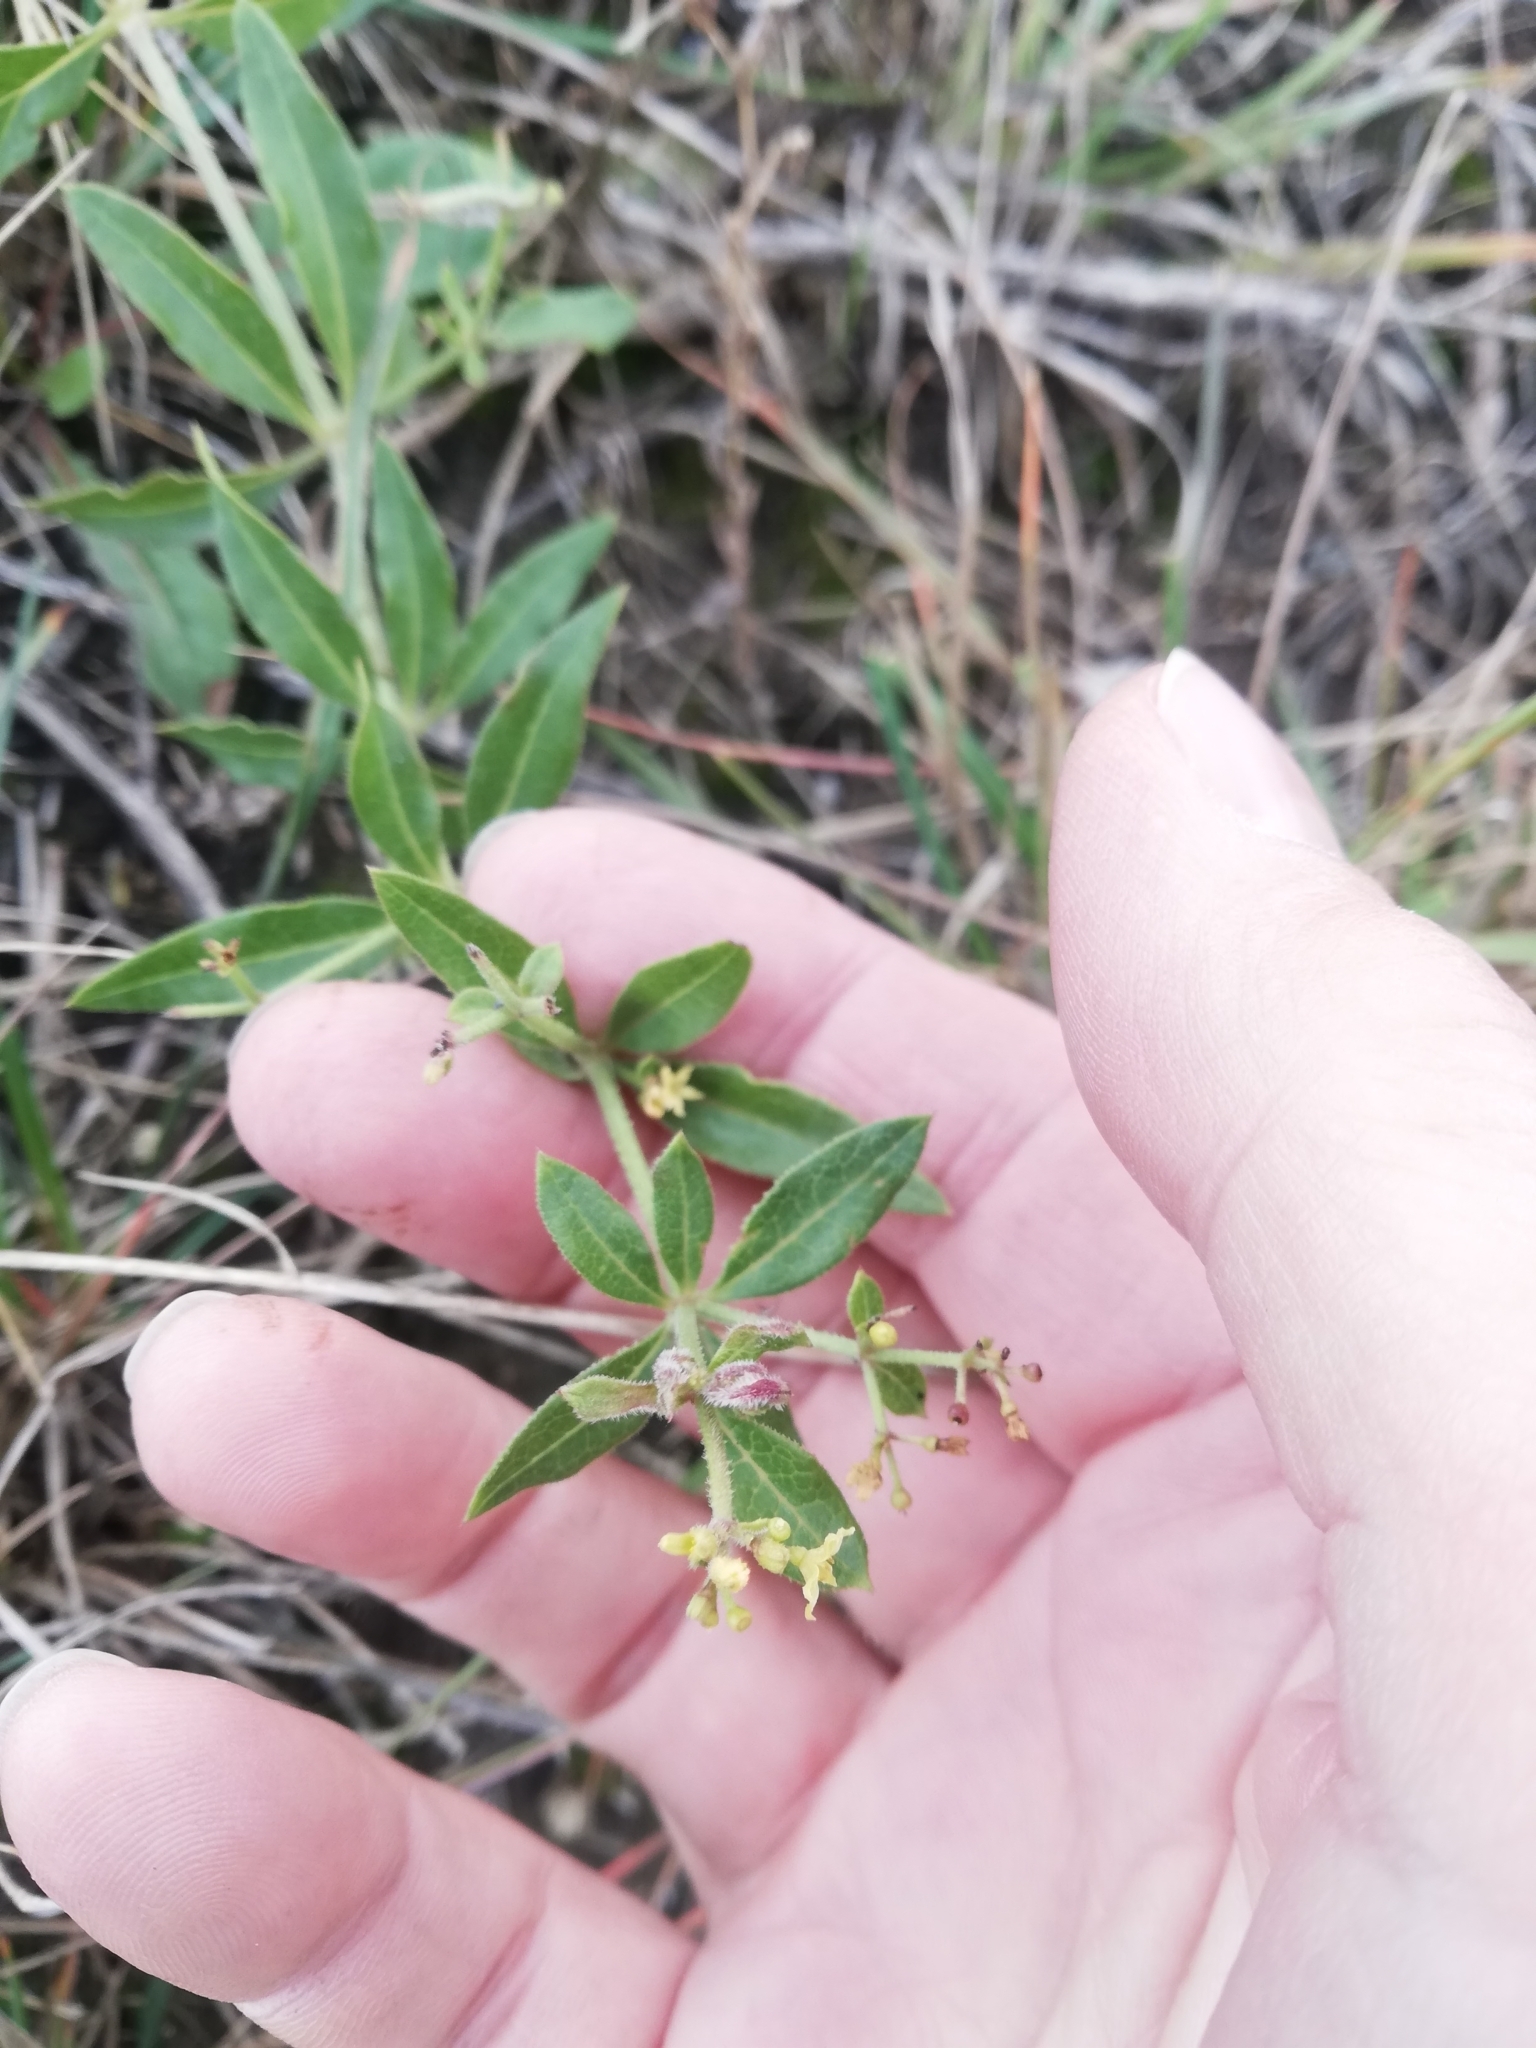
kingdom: Plantae
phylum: Tracheophyta
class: Magnoliopsida
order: Gentianales
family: Rubiaceae
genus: Rubia
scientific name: Rubia tinctorum
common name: Dyer's madder
